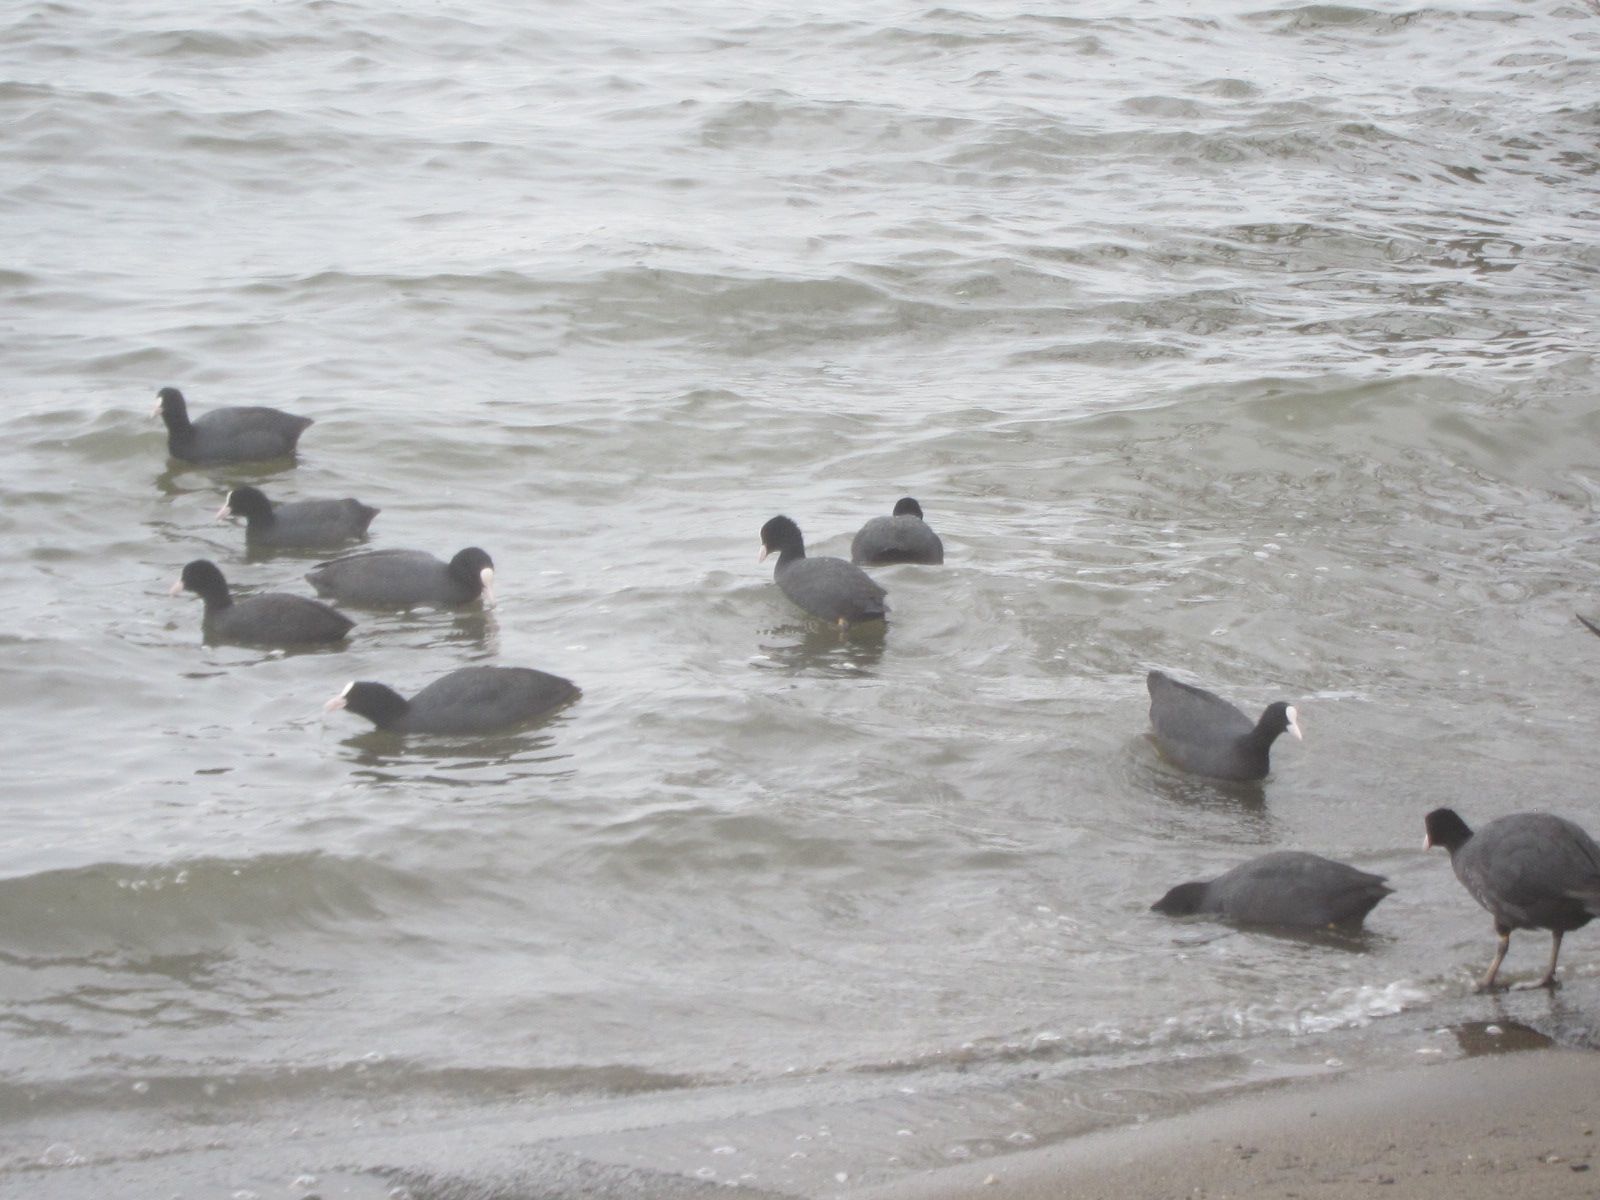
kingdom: Animalia
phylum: Chordata
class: Aves
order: Gruiformes
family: Rallidae
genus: Fulica
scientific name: Fulica atra
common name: Eurasian coot
